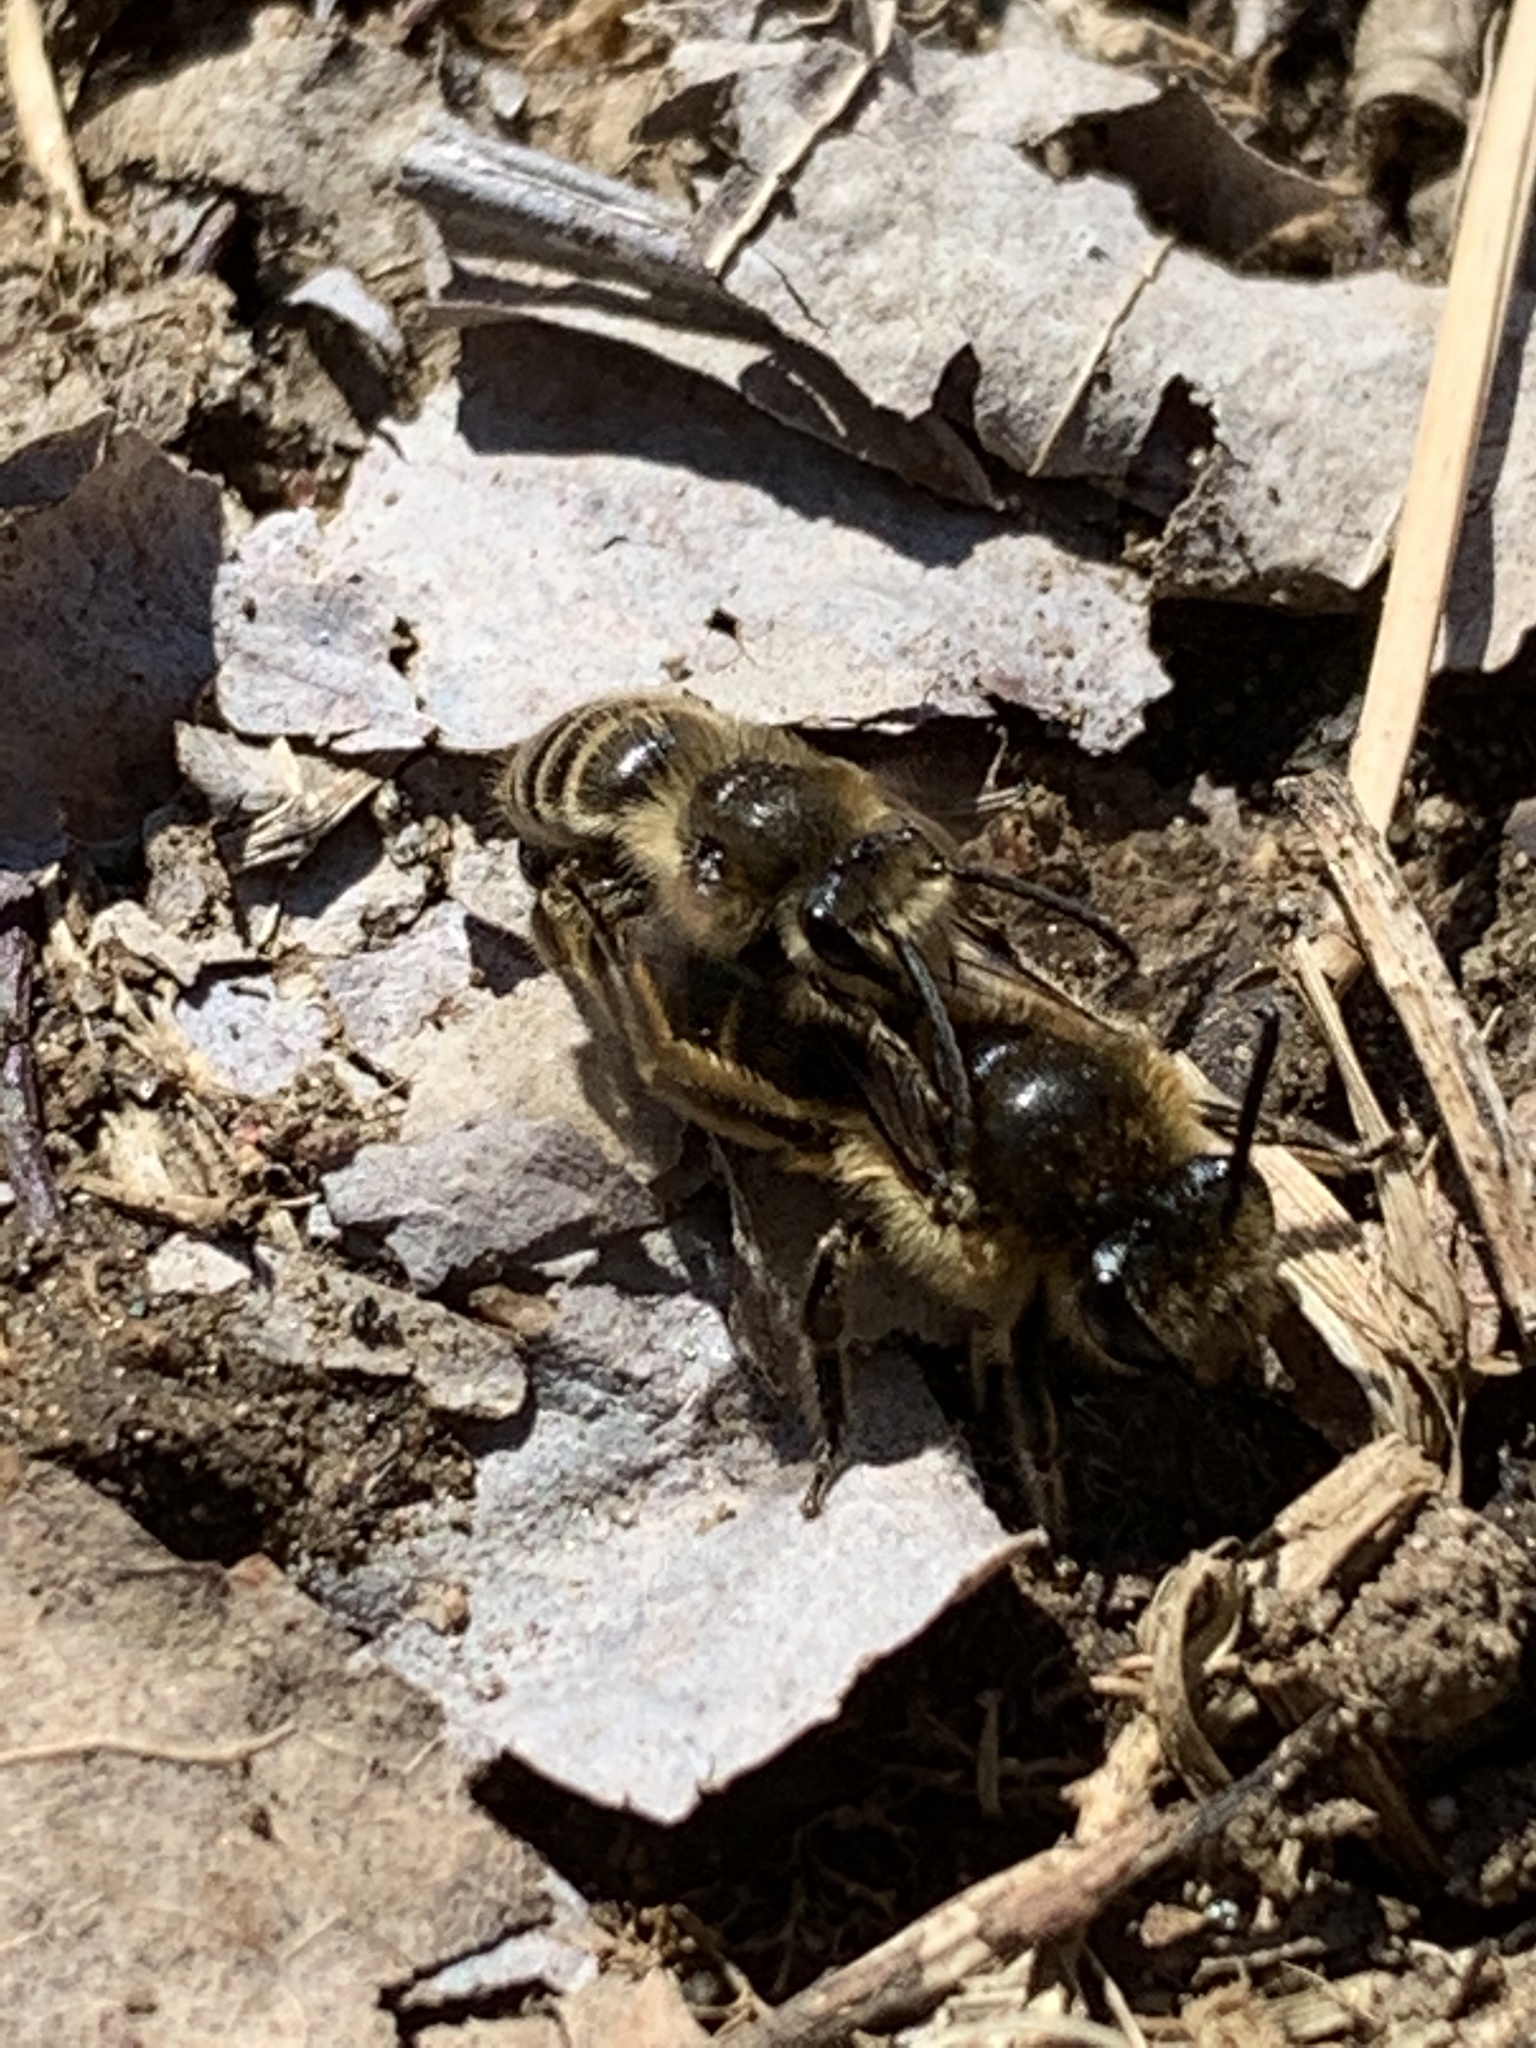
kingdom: Animalia
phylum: Arthropoda
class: Insecta
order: Hymenoptera
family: Colletidae
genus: Colletes
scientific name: Colletes inaequalis
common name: Unequal cellophane bee
